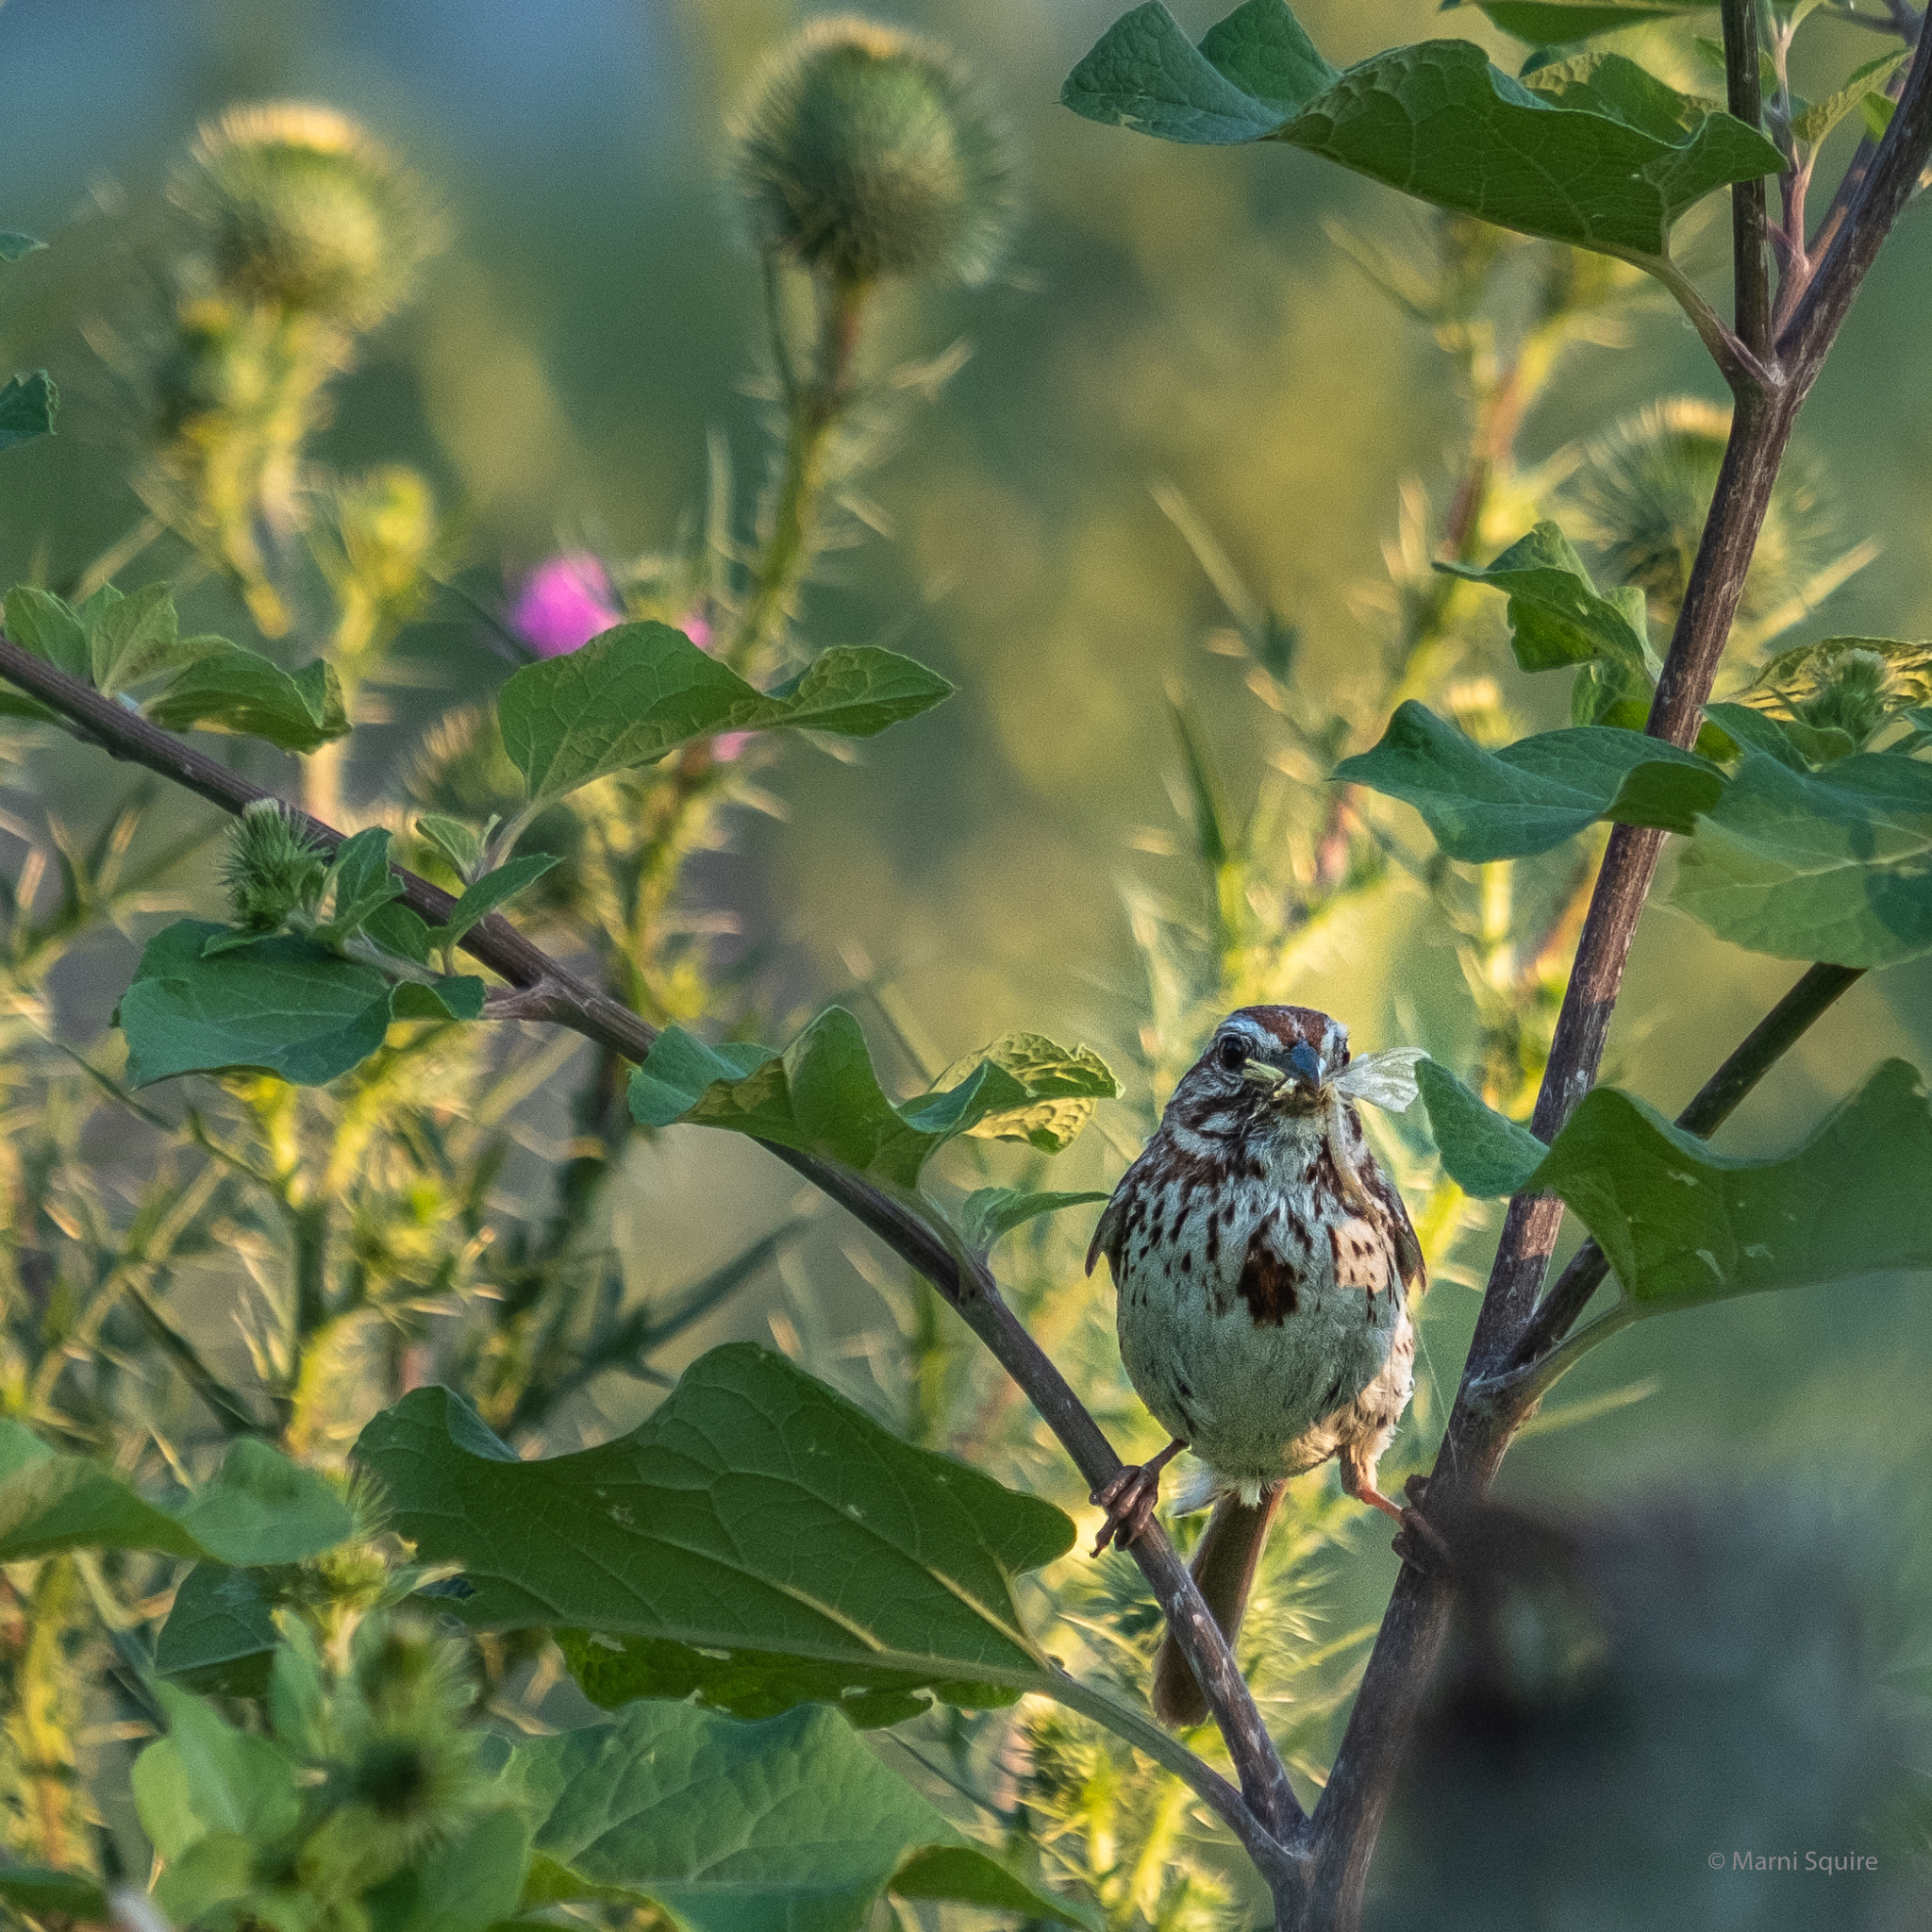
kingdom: Animalia
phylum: Chordata
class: Aves
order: Passeriformes
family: Passerellidae
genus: Melospiza
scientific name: Melospiza melodia
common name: Song sparrow
